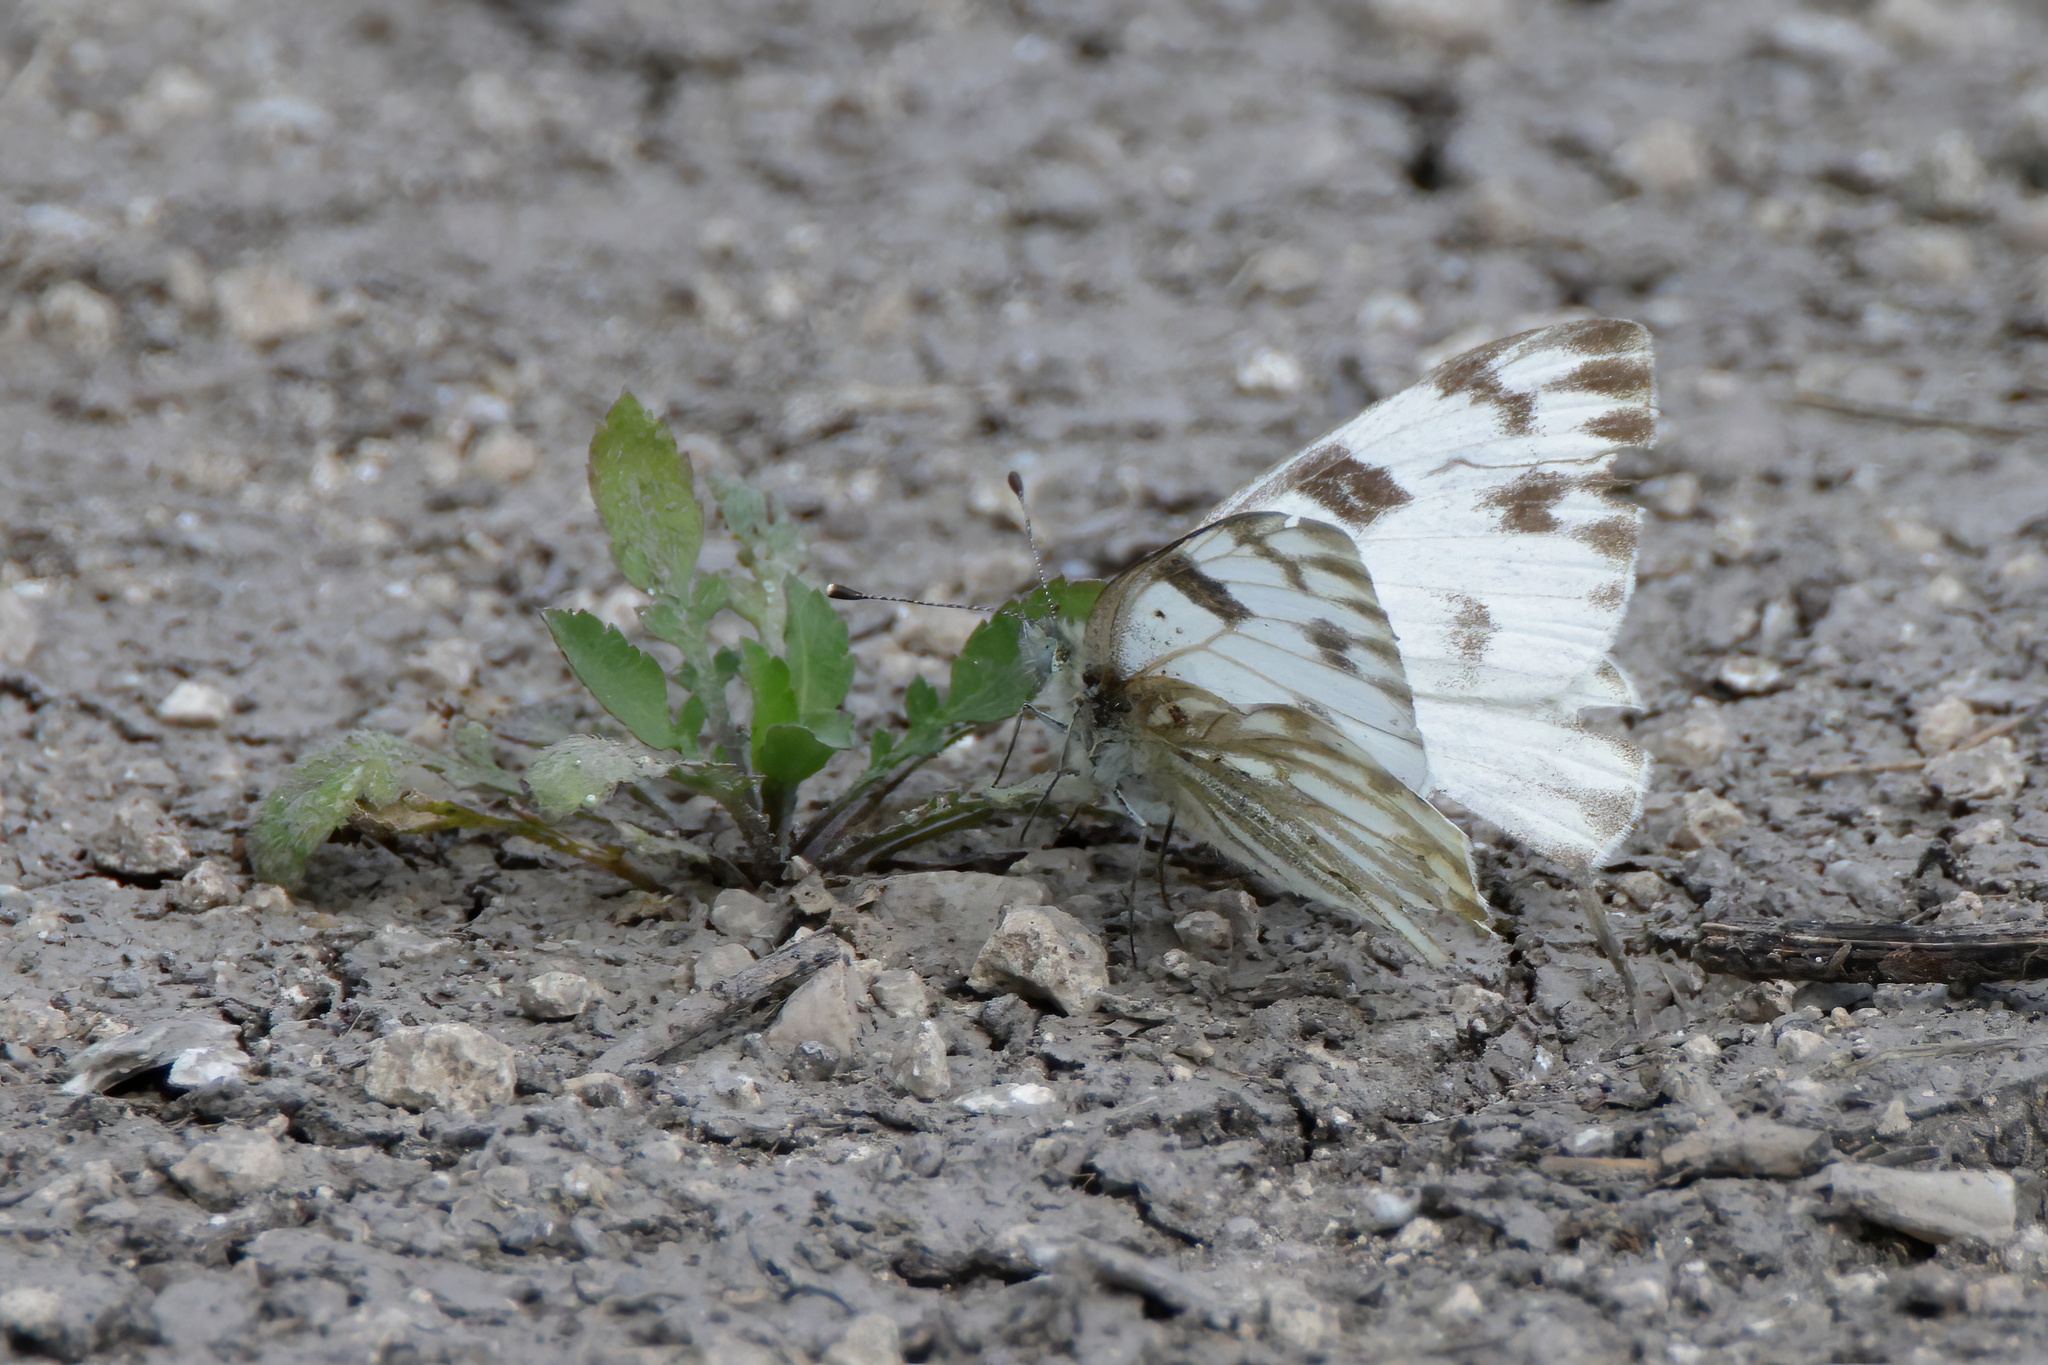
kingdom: Animalia
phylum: Arthropoda
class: Insecta
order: Lepidoptera
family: Pieridae
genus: Pontia
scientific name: Pontia protodice
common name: Checkered white
